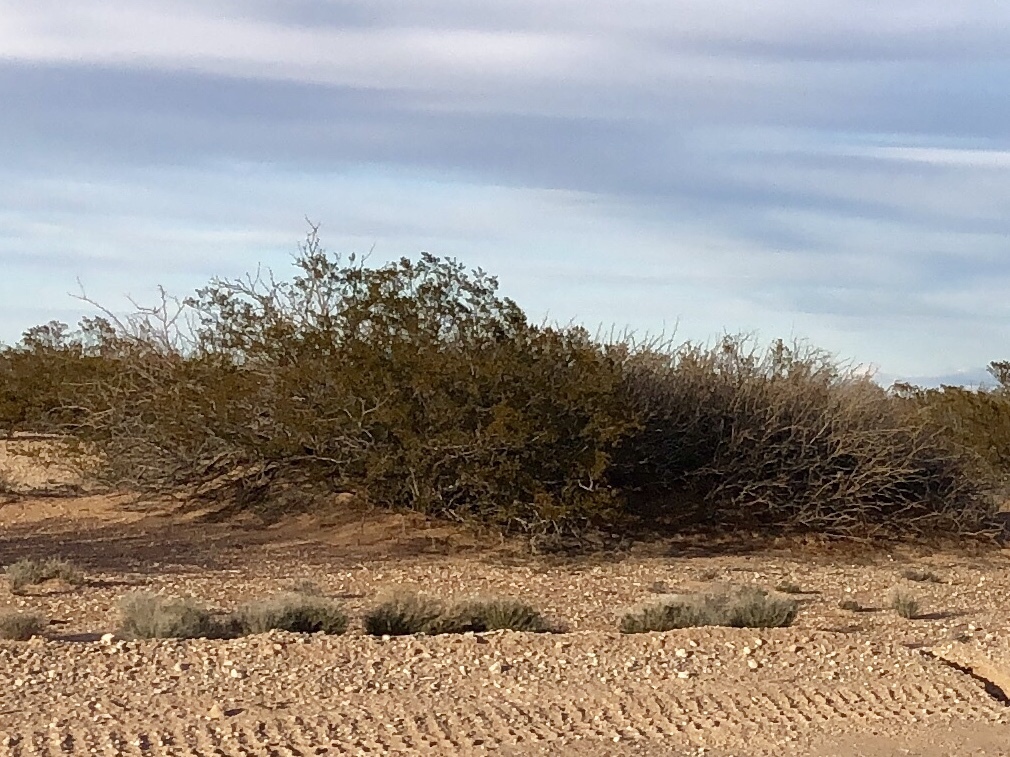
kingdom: Plantae
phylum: Tracheophyta
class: Magnoliopsida
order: Zygophyllales
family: Zygophyllaceae
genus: Larrea
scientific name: Larrea tridentata
